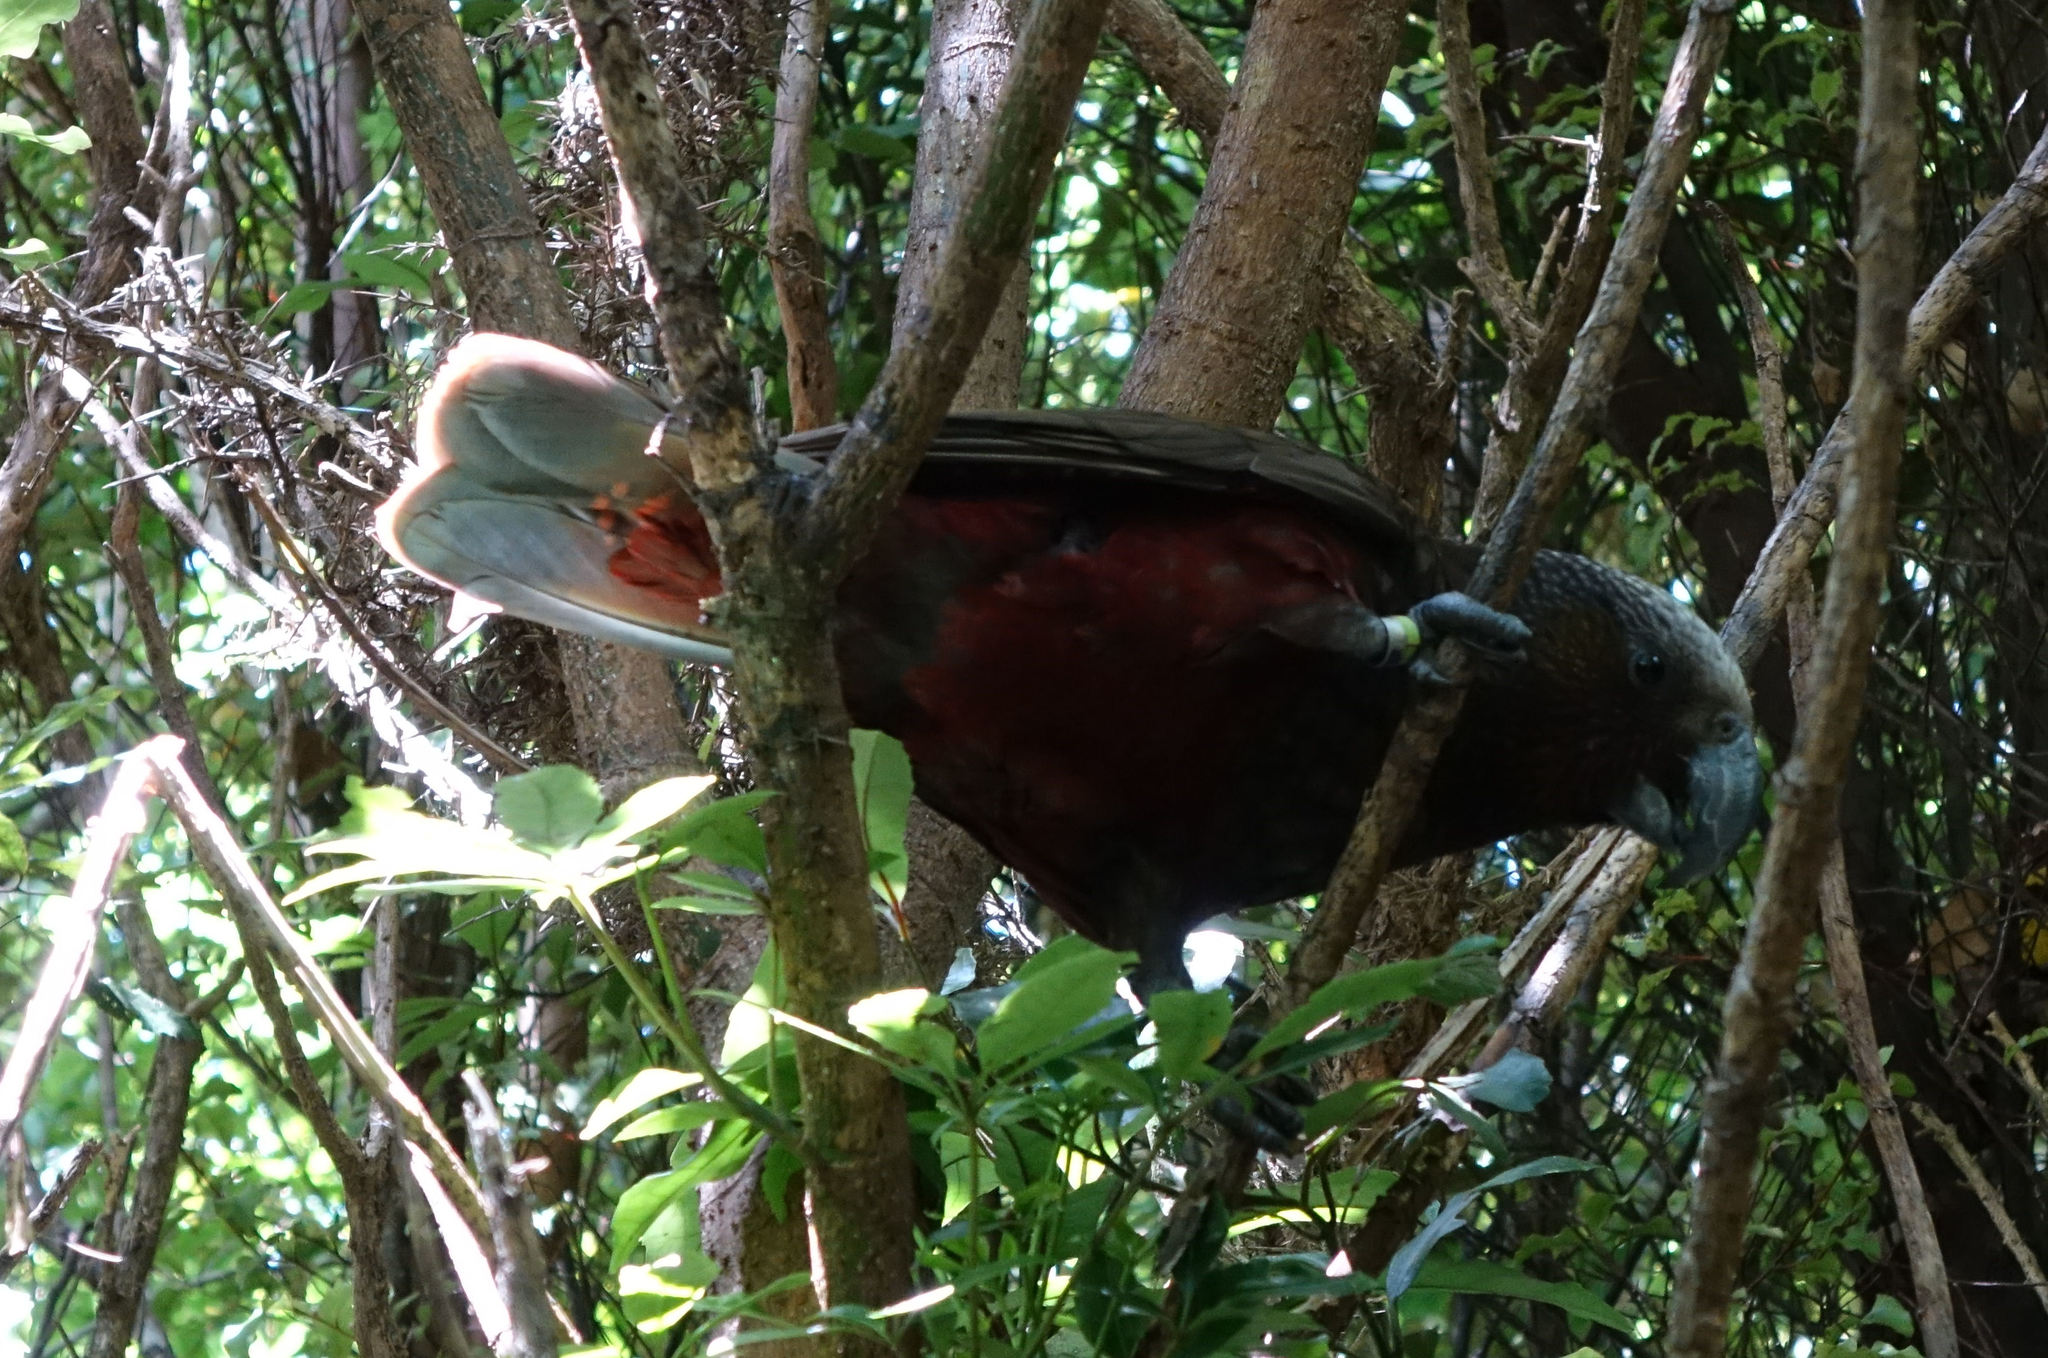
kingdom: Animalia
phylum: Chordata
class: Aves
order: Psittaciformes
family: Psittacidae
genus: Nestor
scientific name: Nestor meridionalis
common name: New zealand kaka
